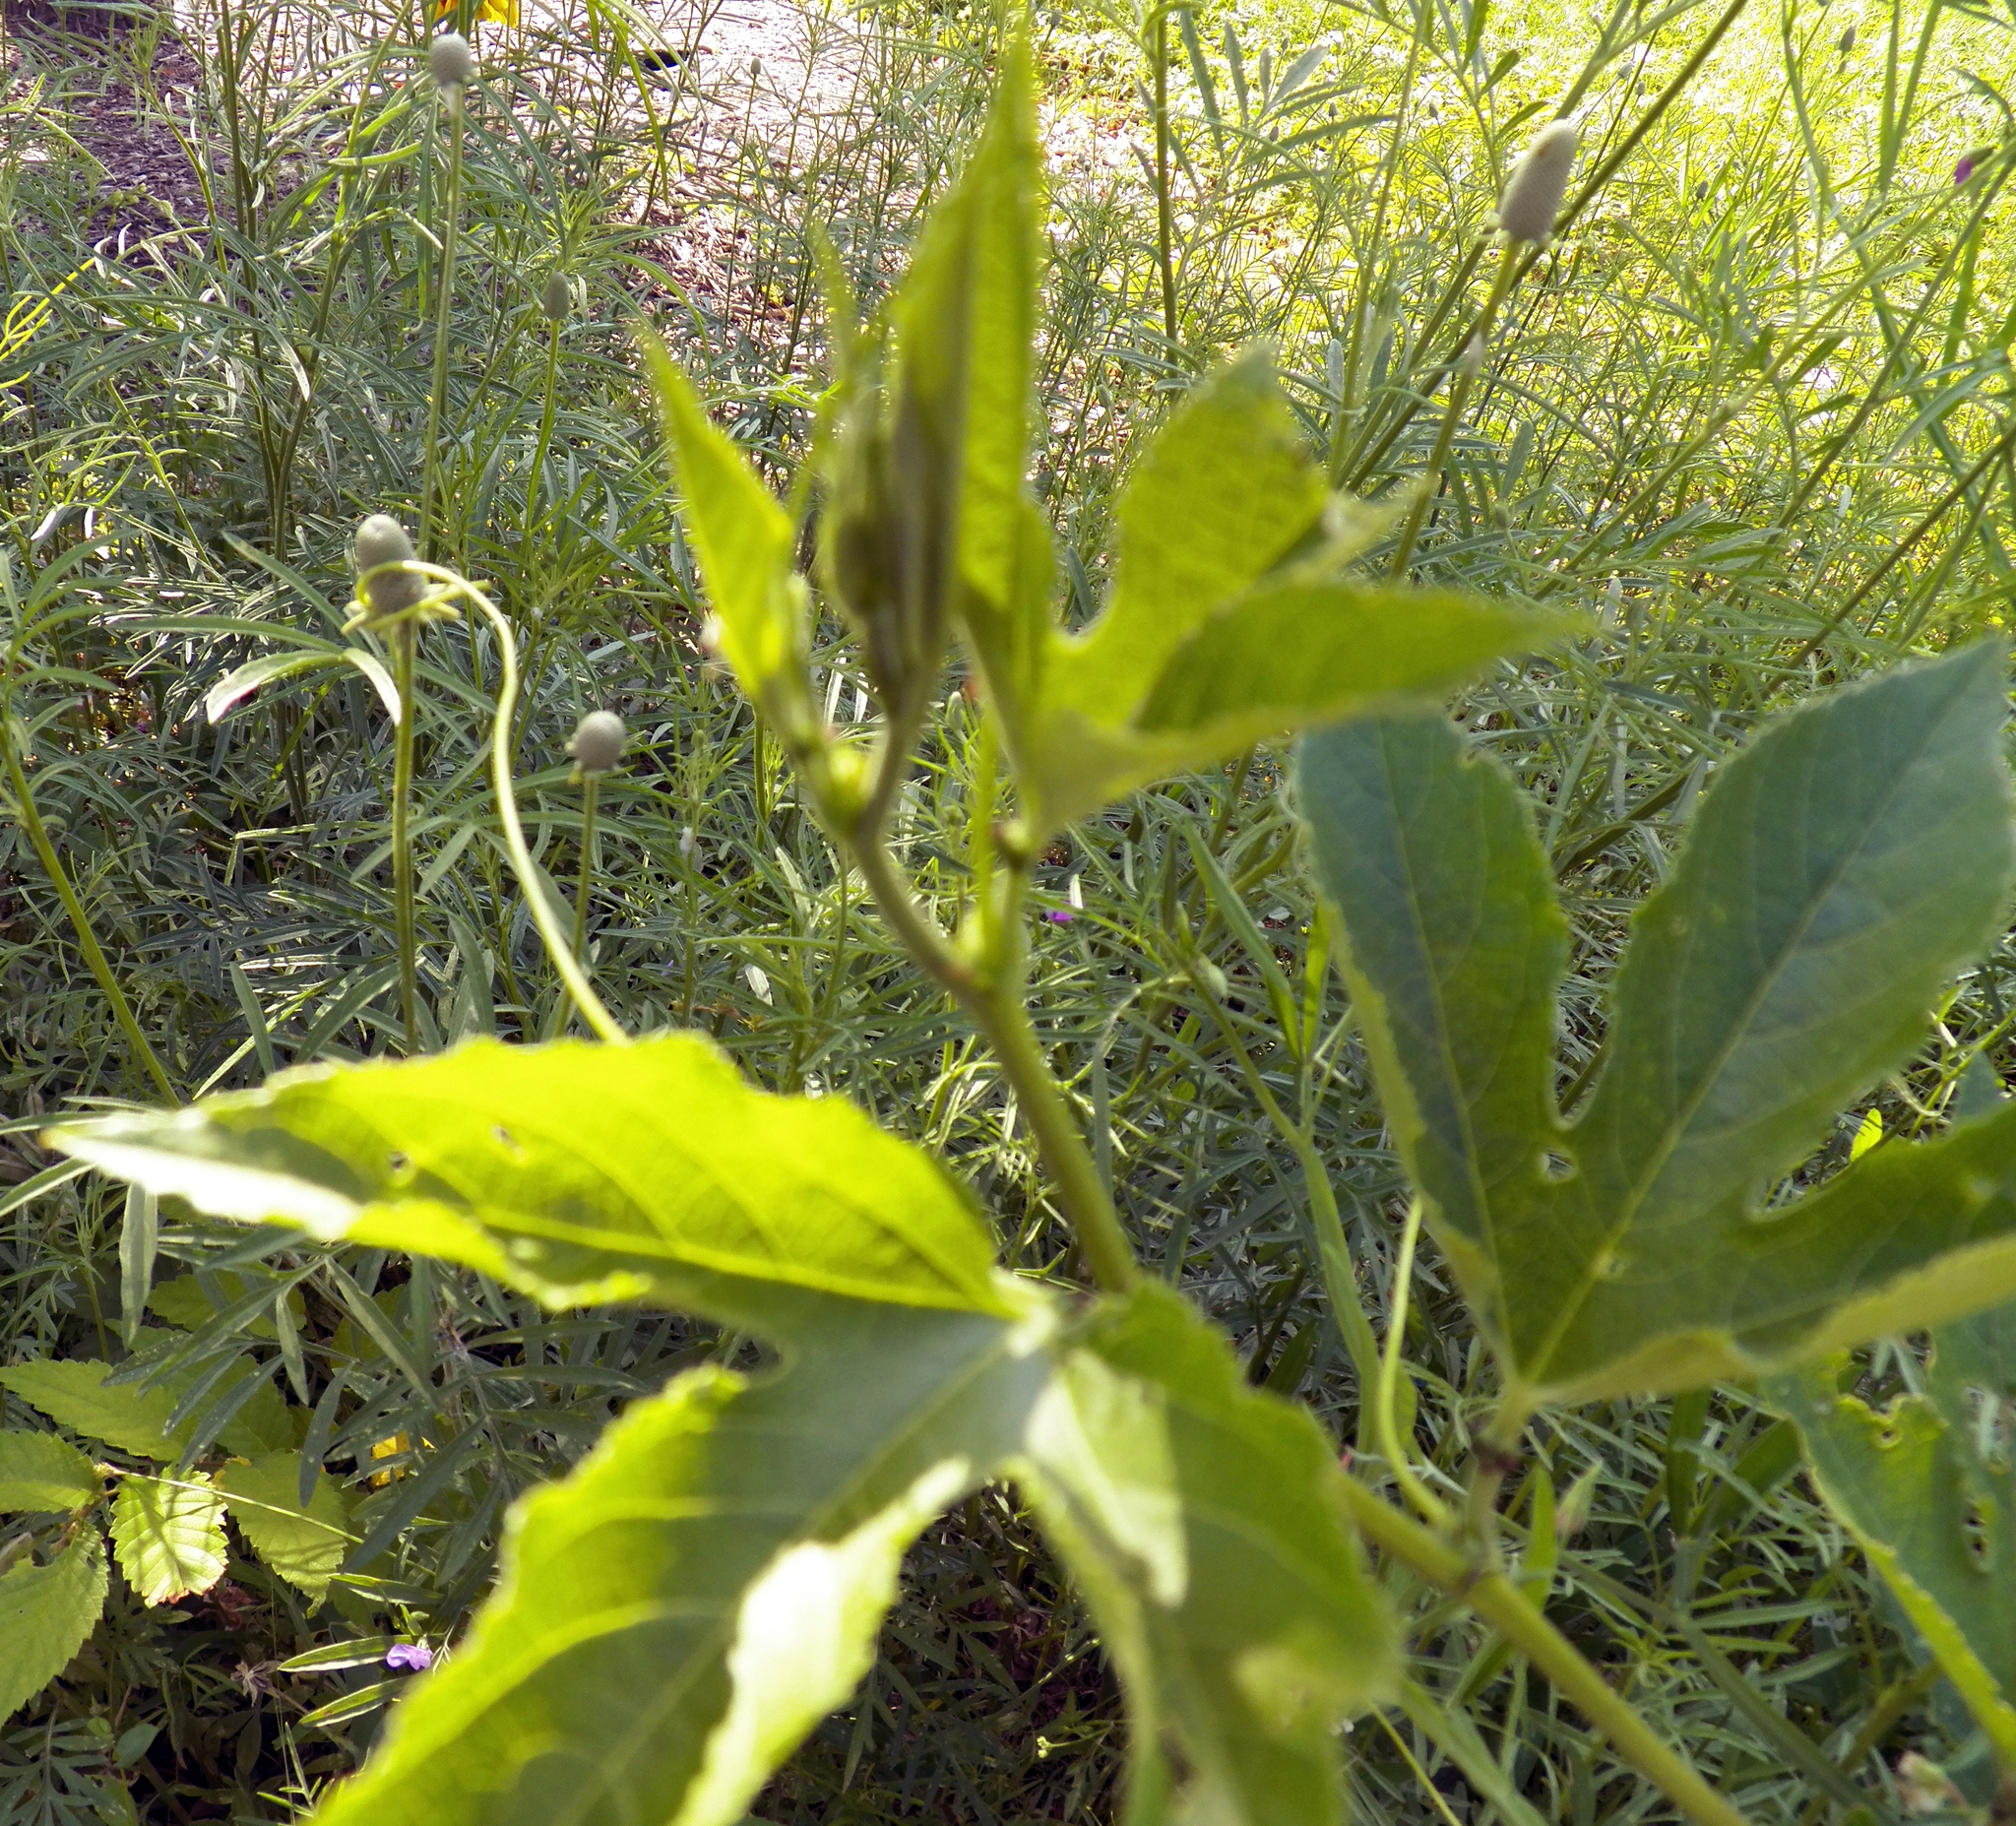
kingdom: Plantae
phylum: Tracheophyta
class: Magnoliopsida
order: Malpighiales
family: Passifloraceae
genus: Passiflora
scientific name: Passiflora incarnata
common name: Apricot-vine
